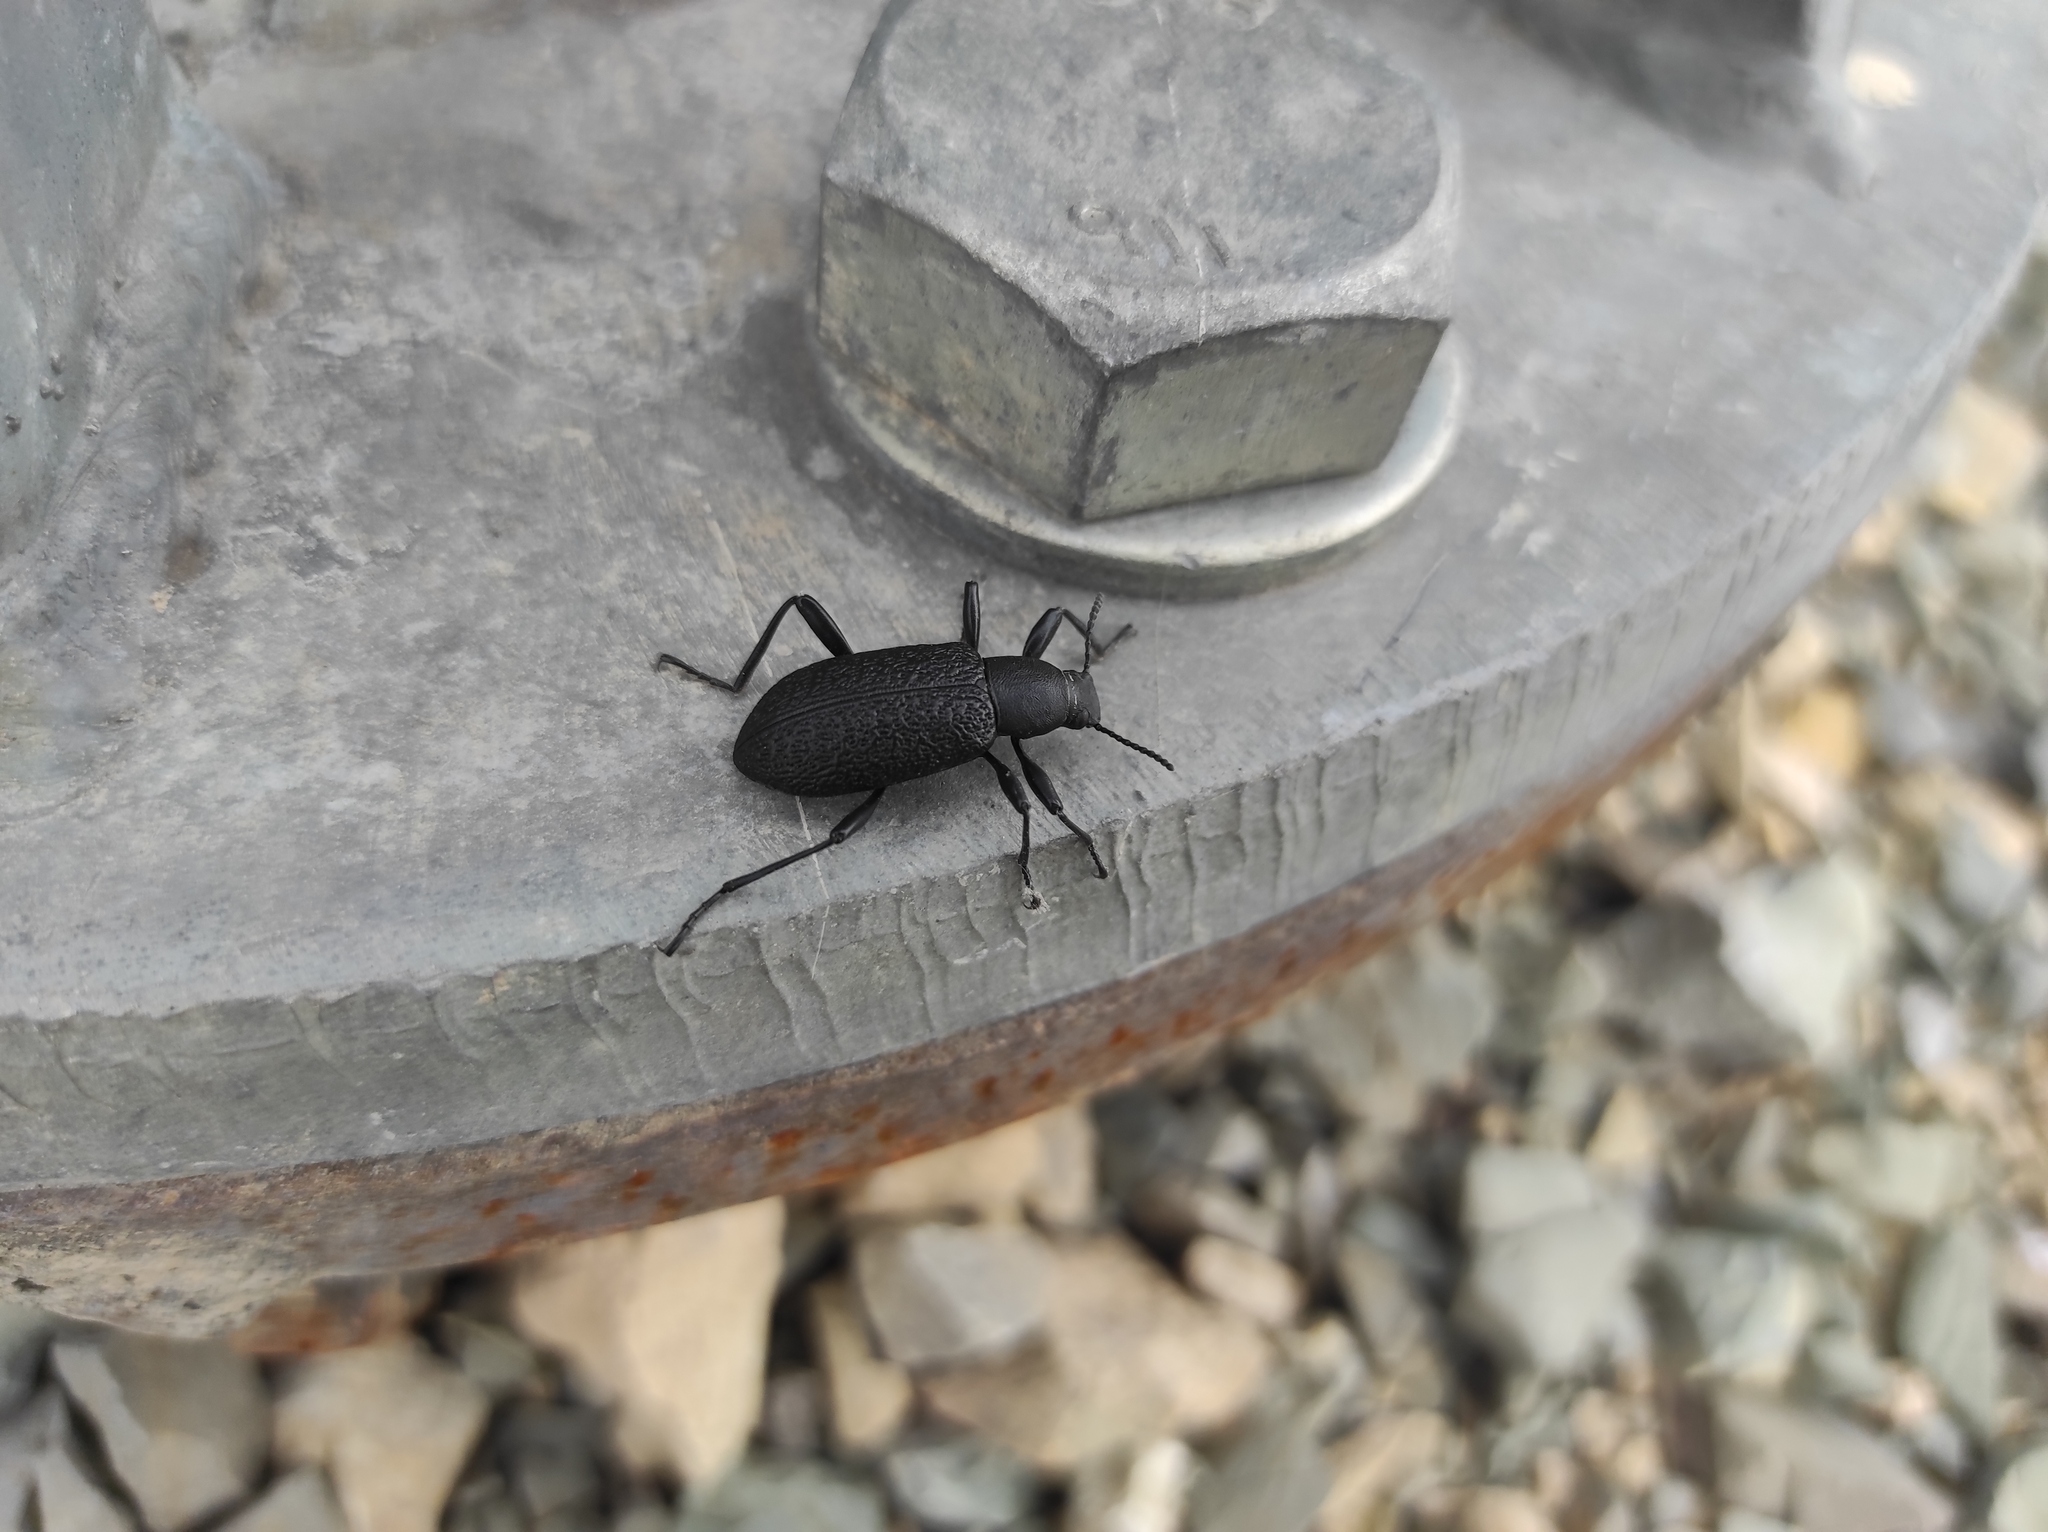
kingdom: Animalia
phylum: Arthropoda
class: Insecta
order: Coleoptera
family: Tenebrionidae
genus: Upis
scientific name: Upis ceramboides
